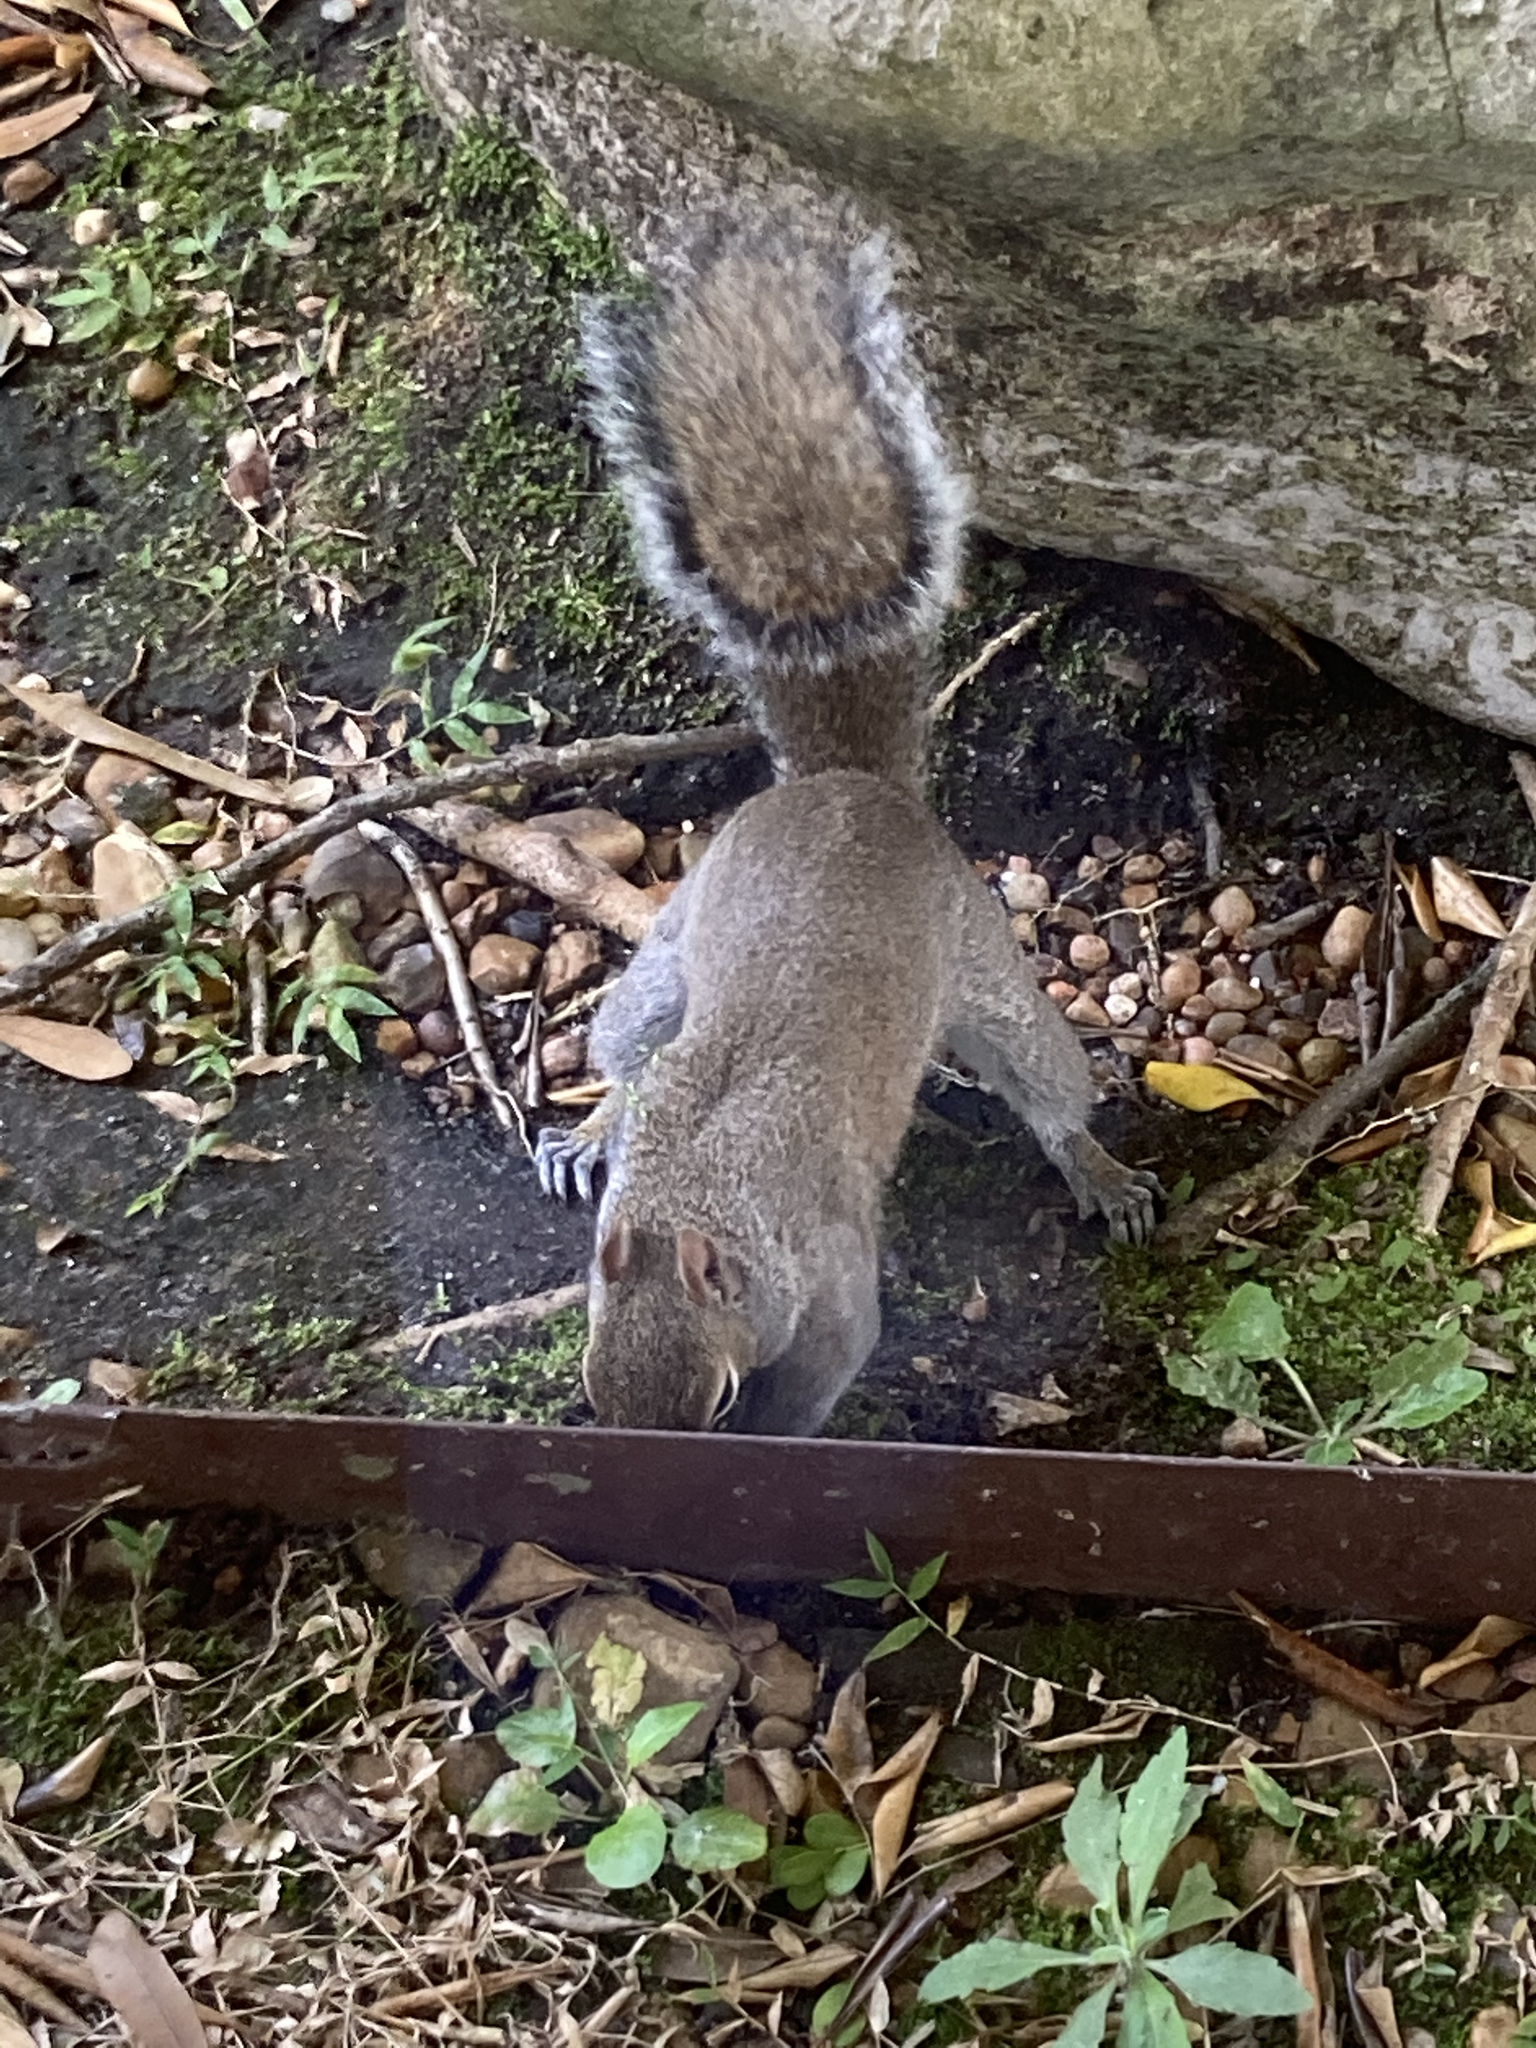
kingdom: Animalia
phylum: Chordata
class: Mammalia
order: Rodentia
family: Sciuridae
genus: Sciurus
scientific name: Sciurus carolinensis
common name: Eastern gray squirrel
